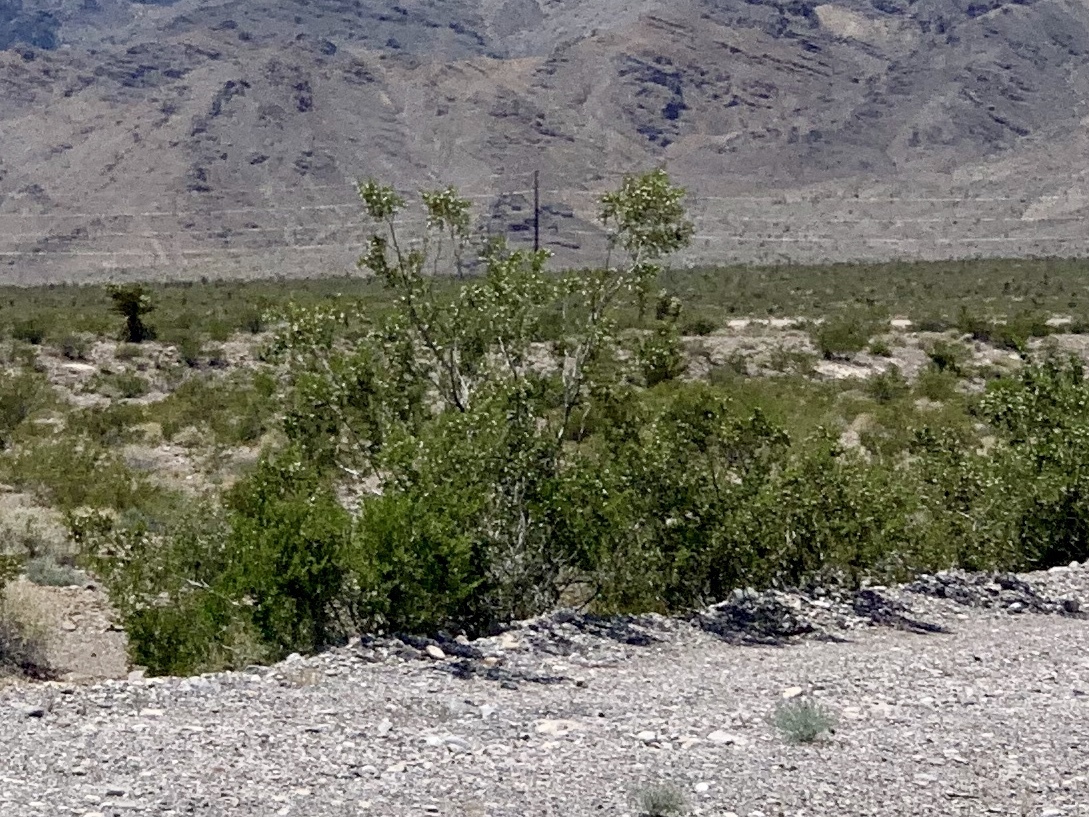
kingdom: Plantae
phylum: Tracheophyta
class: Magnoliopsida
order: Zygophyllales
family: Zygophyllaceae
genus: Larrea
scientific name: Larrea tridentata
